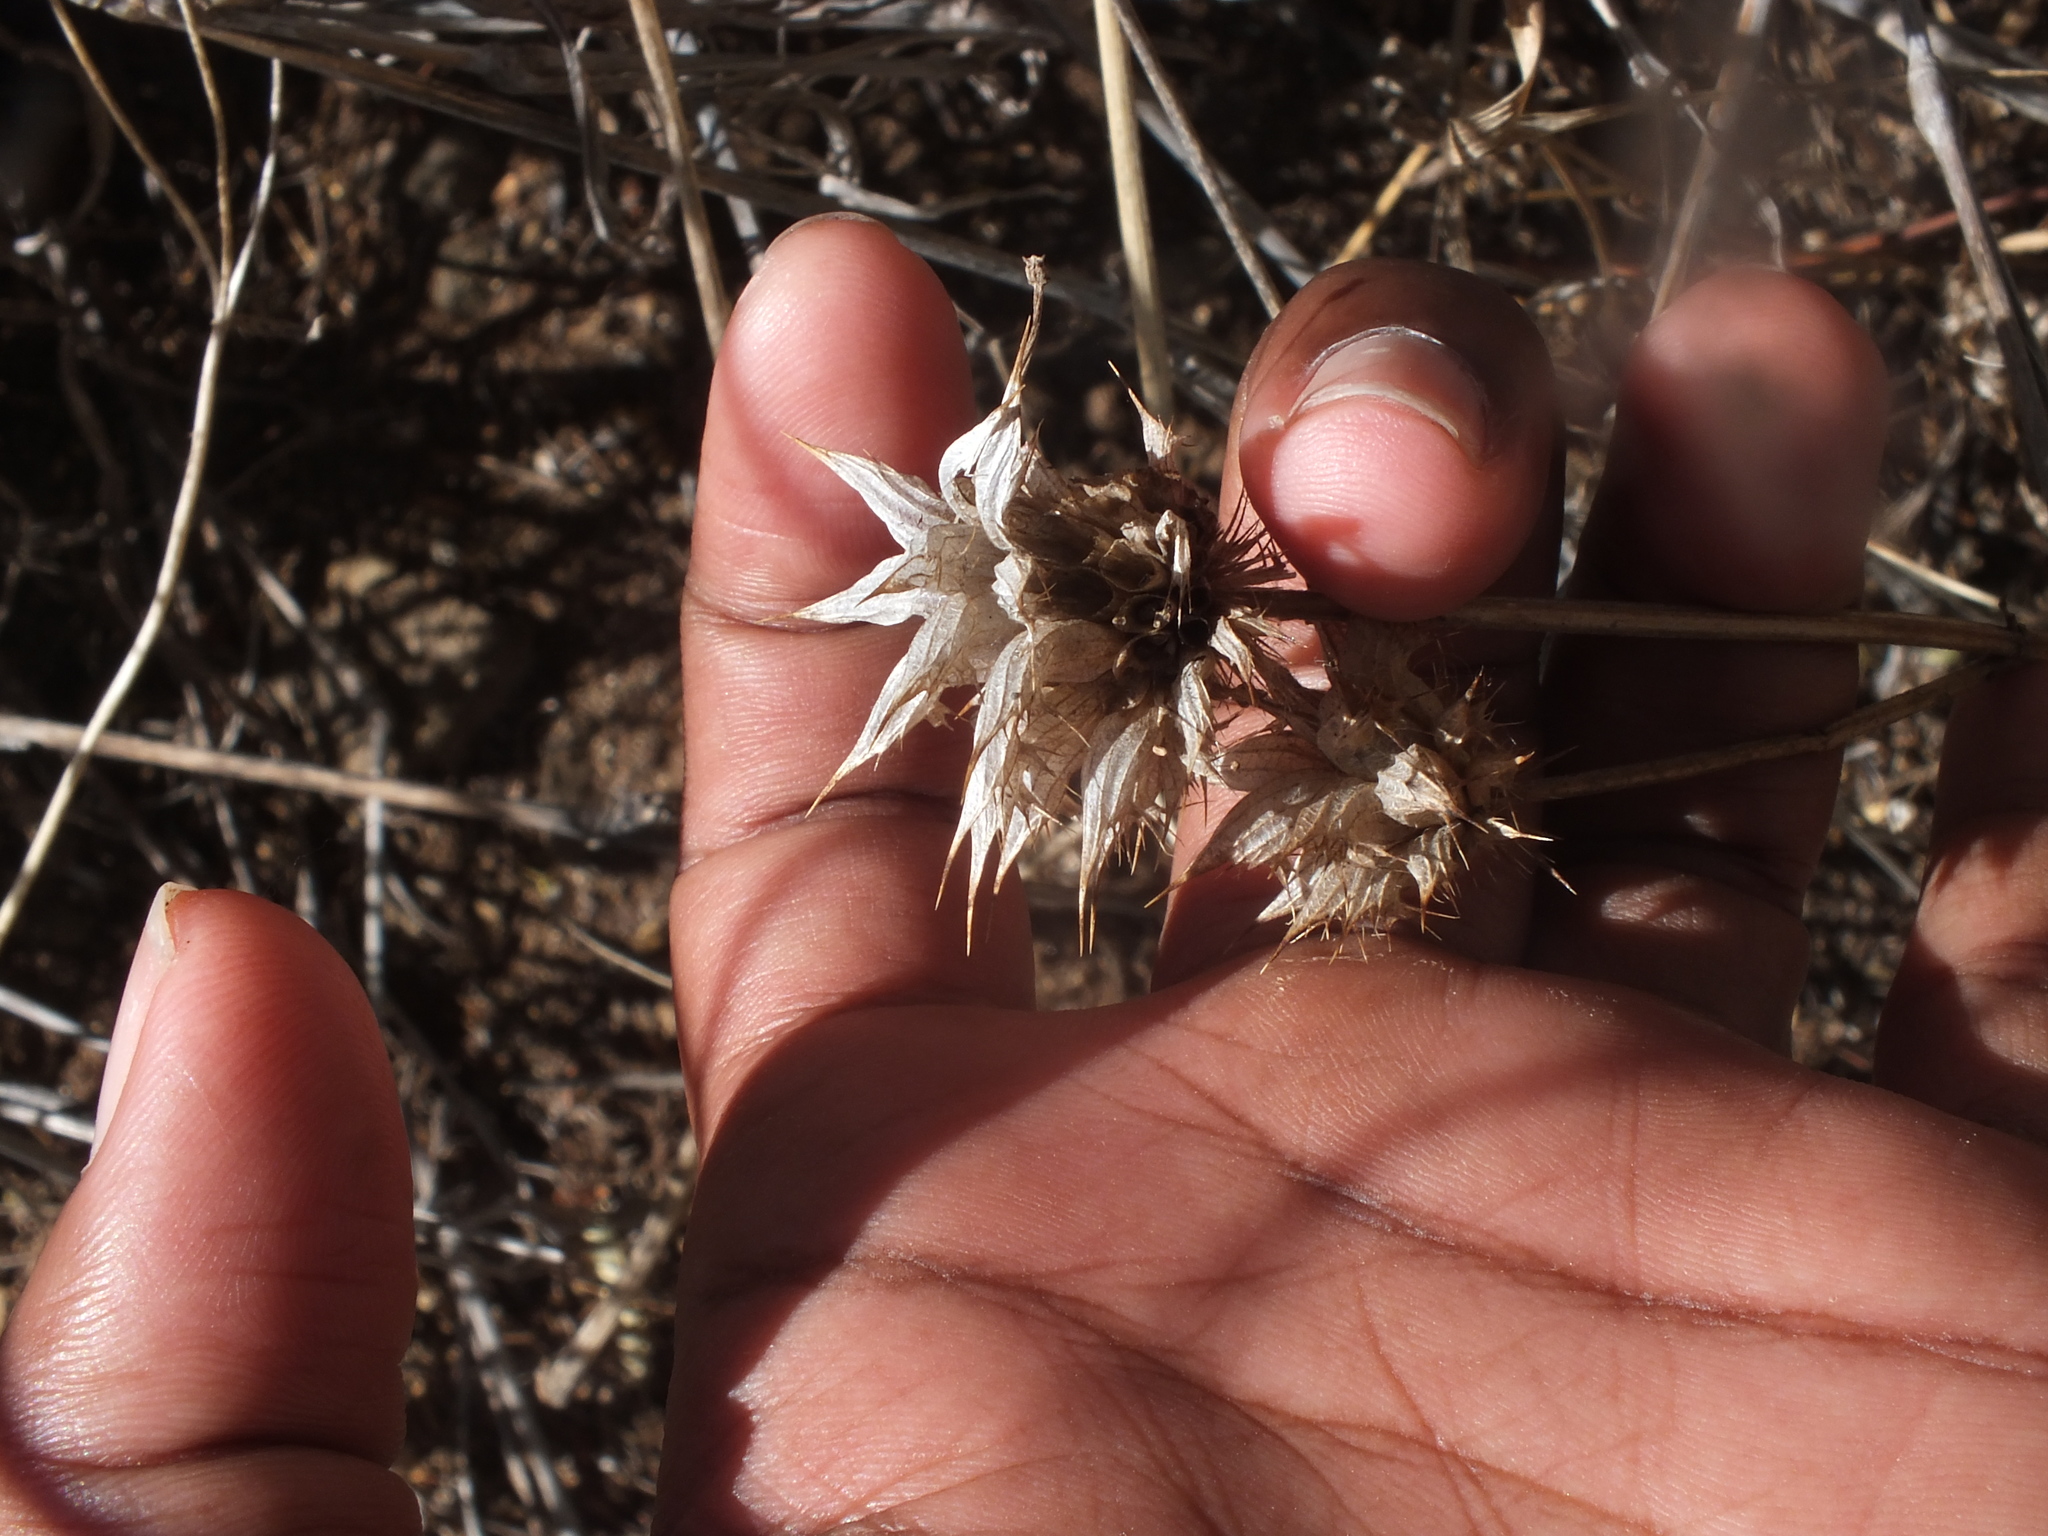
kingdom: Plantae
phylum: Tracheophyta
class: Magnoliopsida
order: Lamiales
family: Lamiaceae
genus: Leonotis
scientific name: Leonotis nepetifolia
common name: Christmas candlestick
